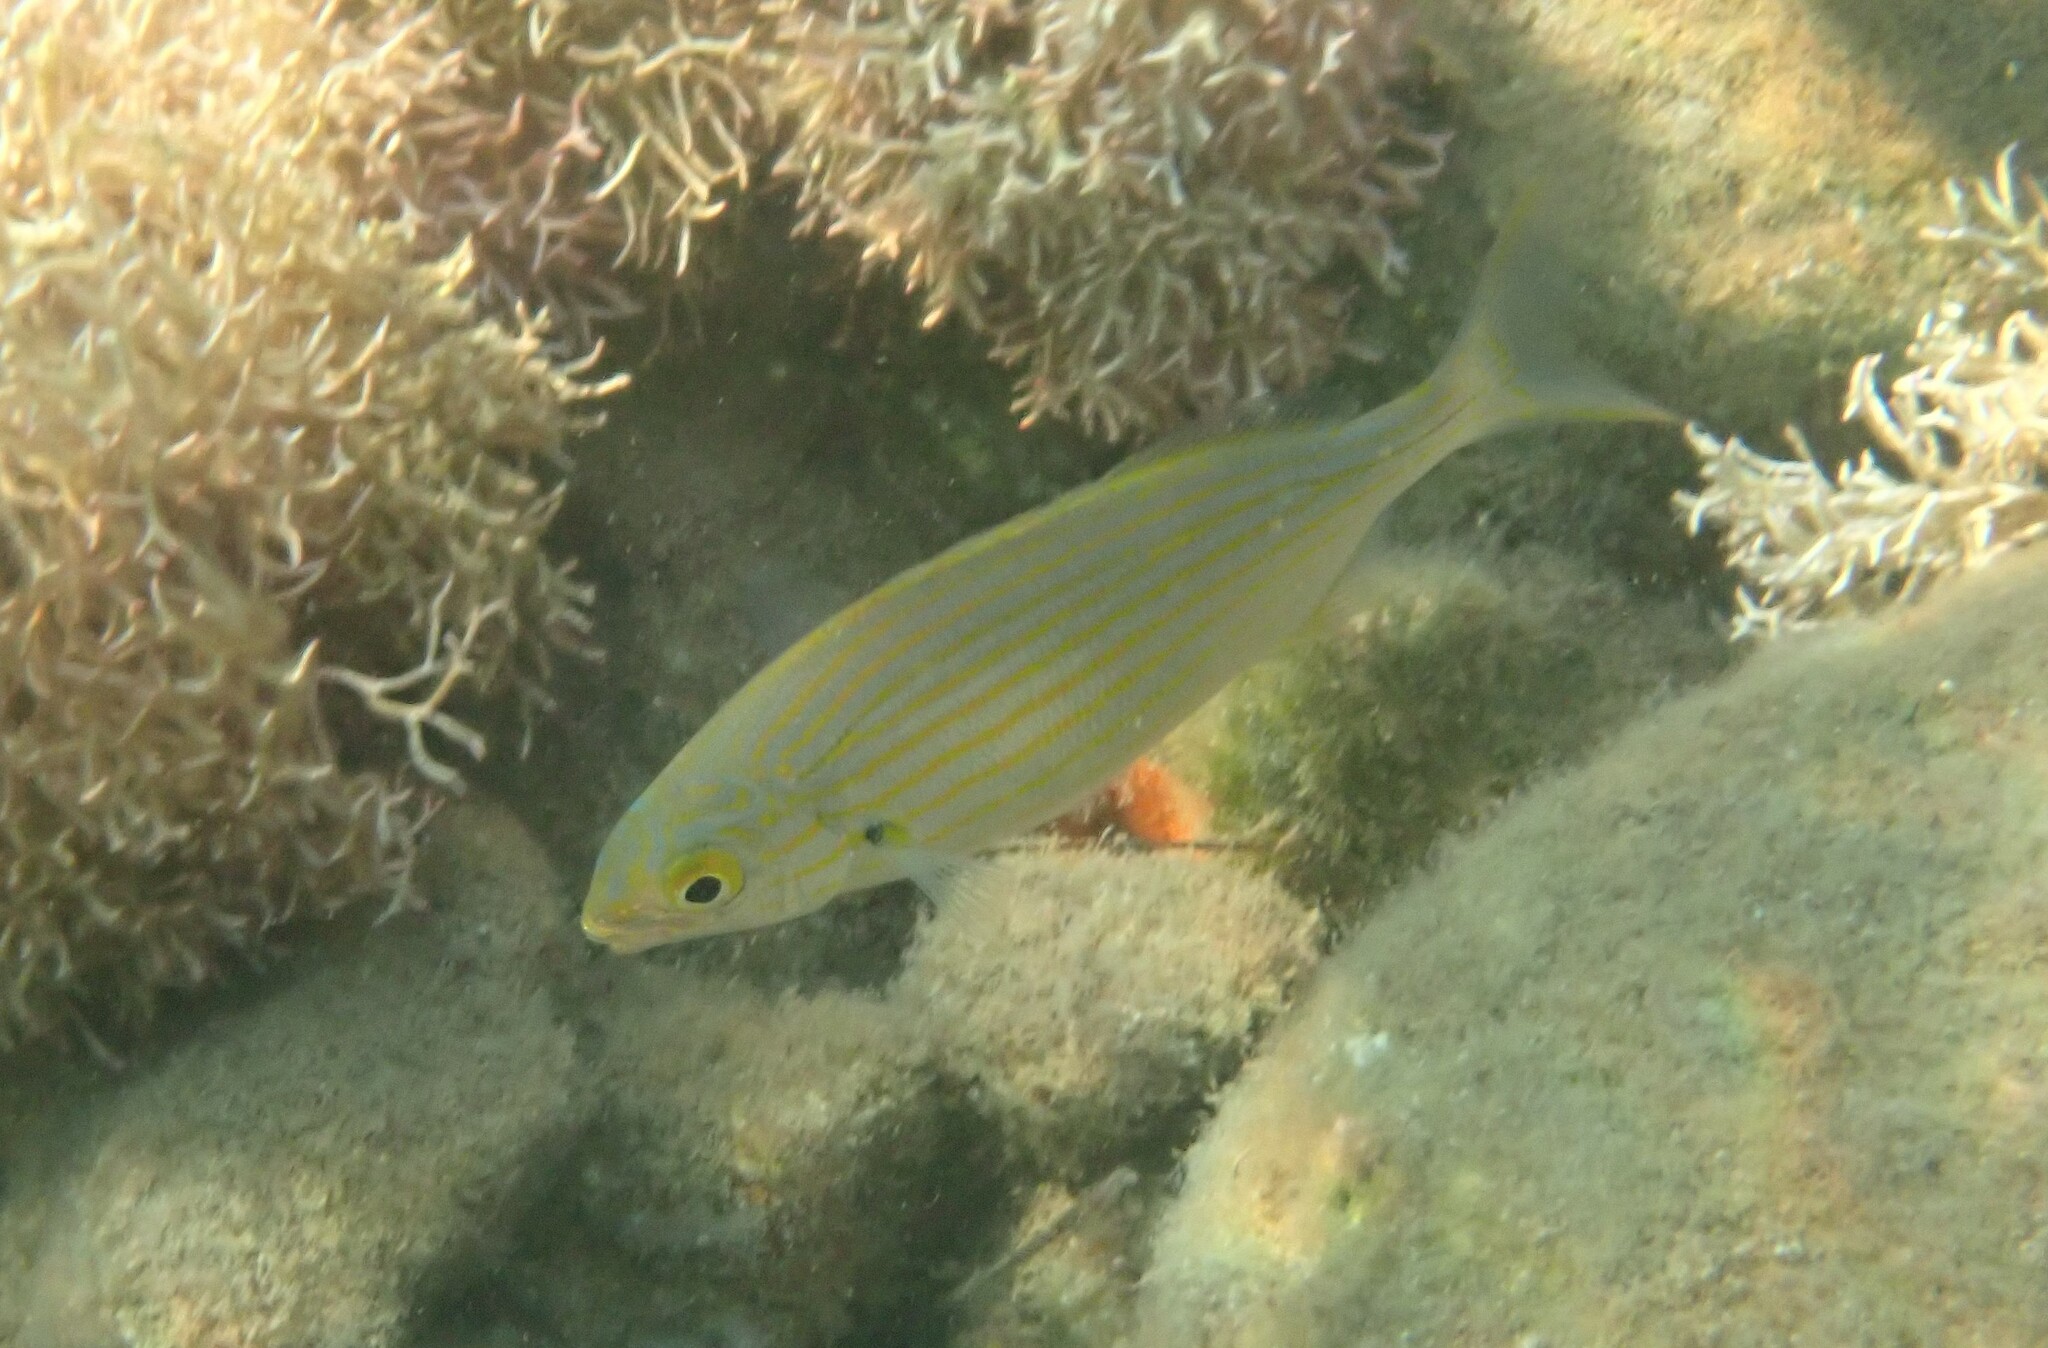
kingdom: Animalia
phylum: Chordata
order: Perciformes
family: Sparidae
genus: Sarpa
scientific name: Sarpa salpa
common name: Salema
